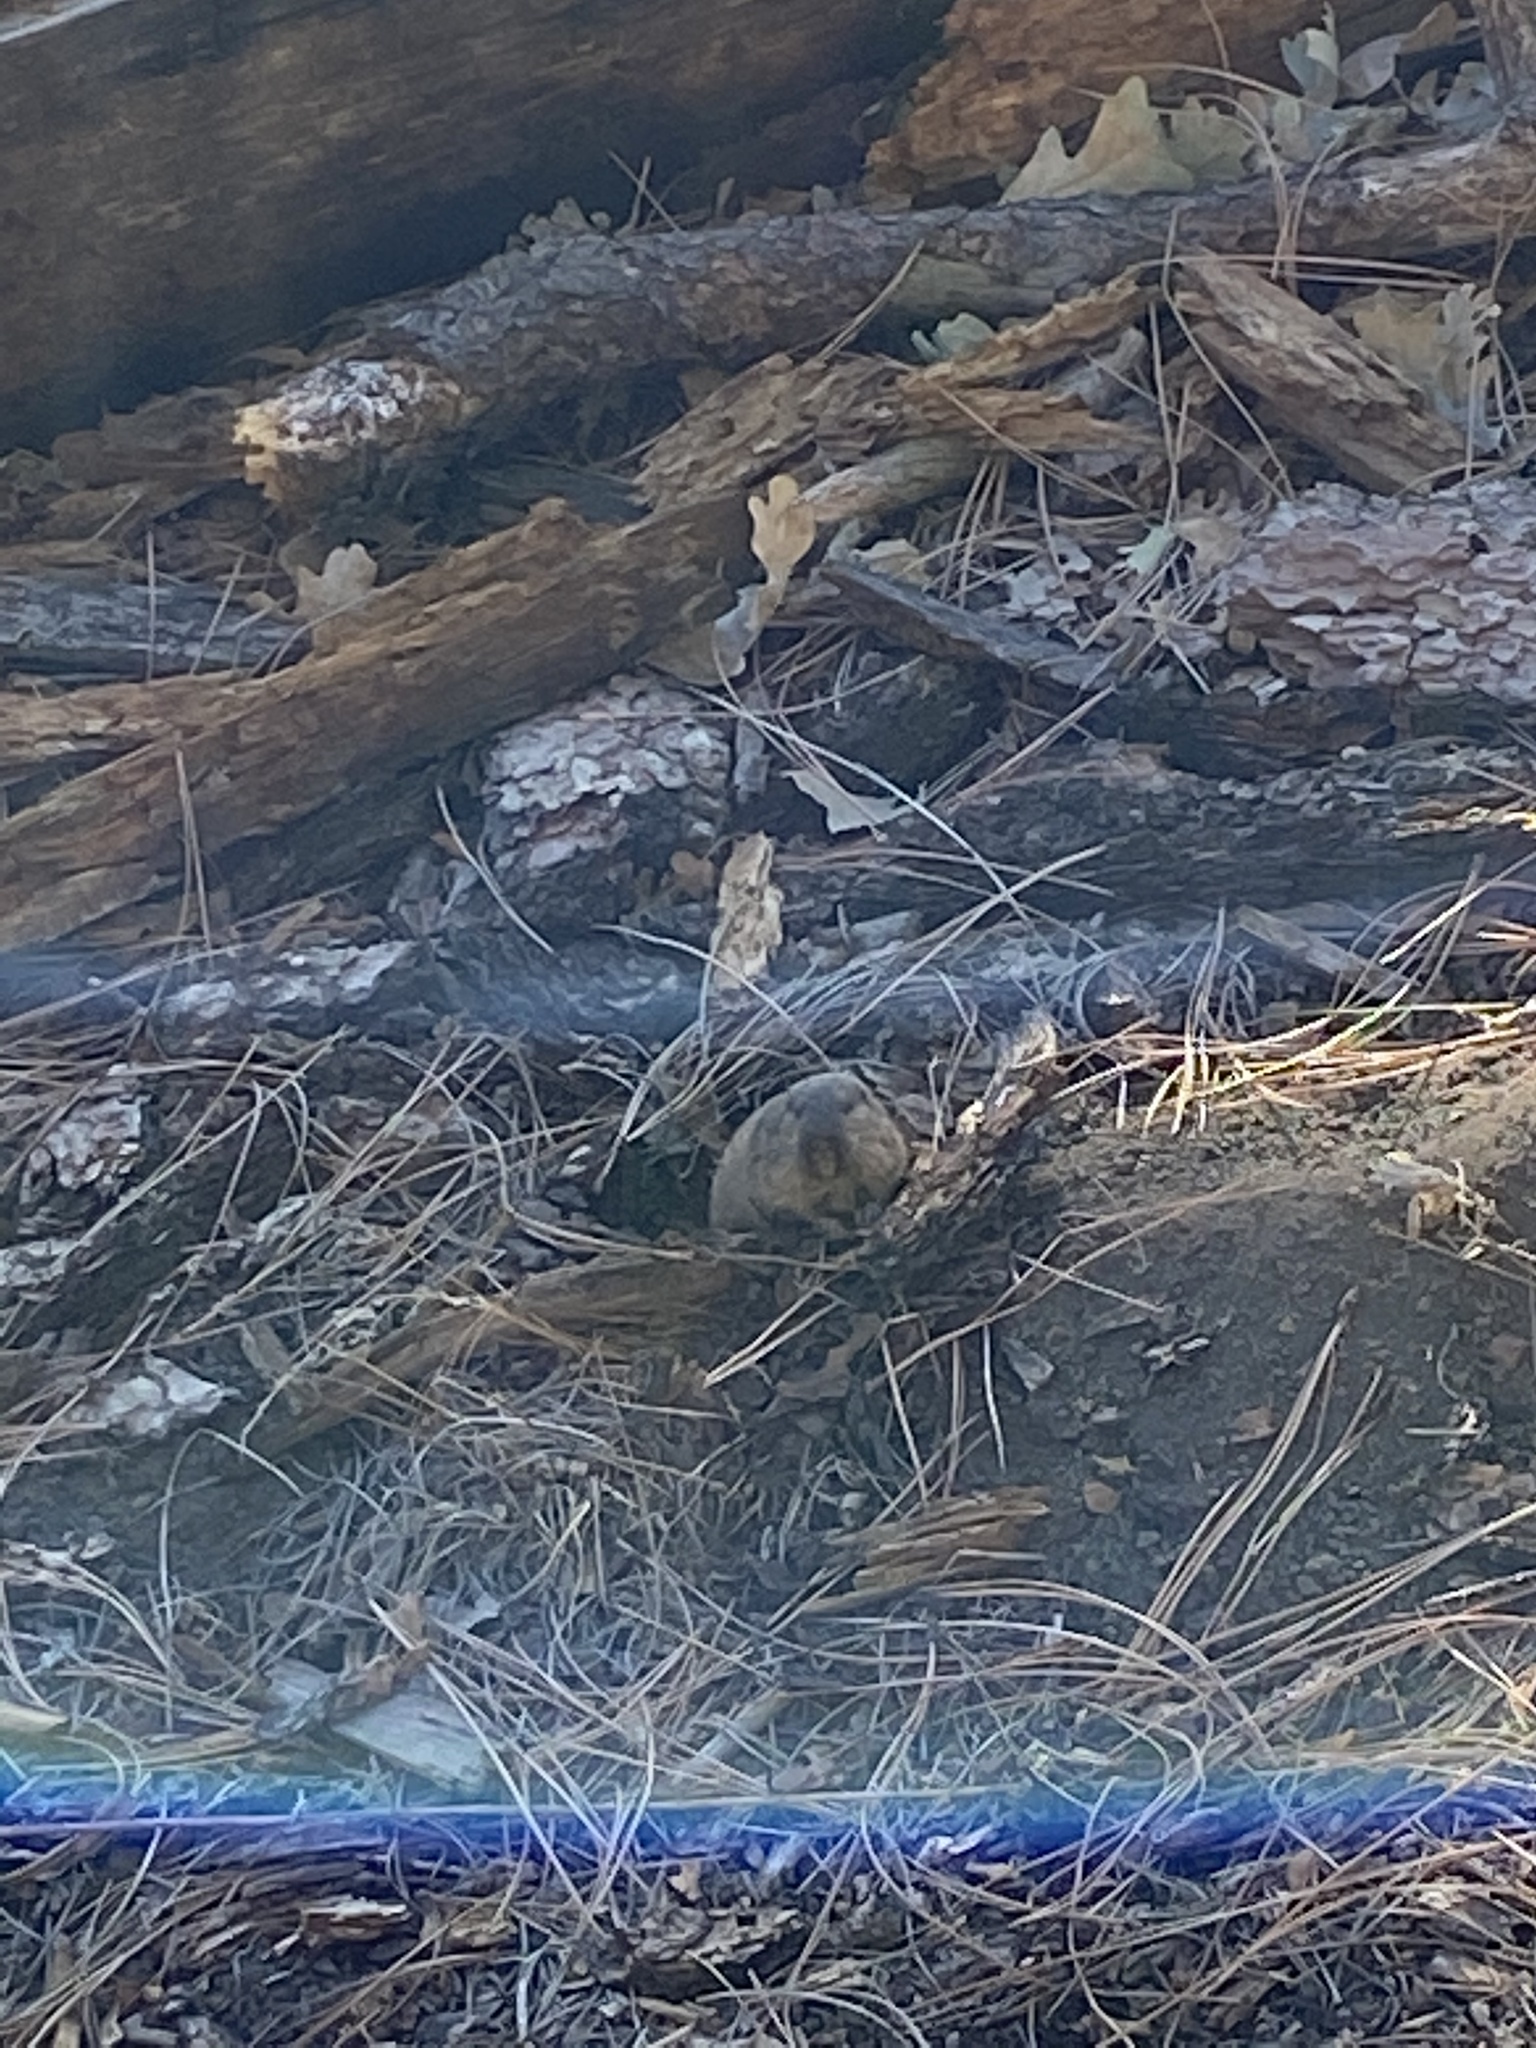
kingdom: Animalia
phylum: Chordata
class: Mammalia
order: Rodentia
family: Geomyidae
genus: Thomomys
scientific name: Thomomys bottae
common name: Botta's pocket gopher
